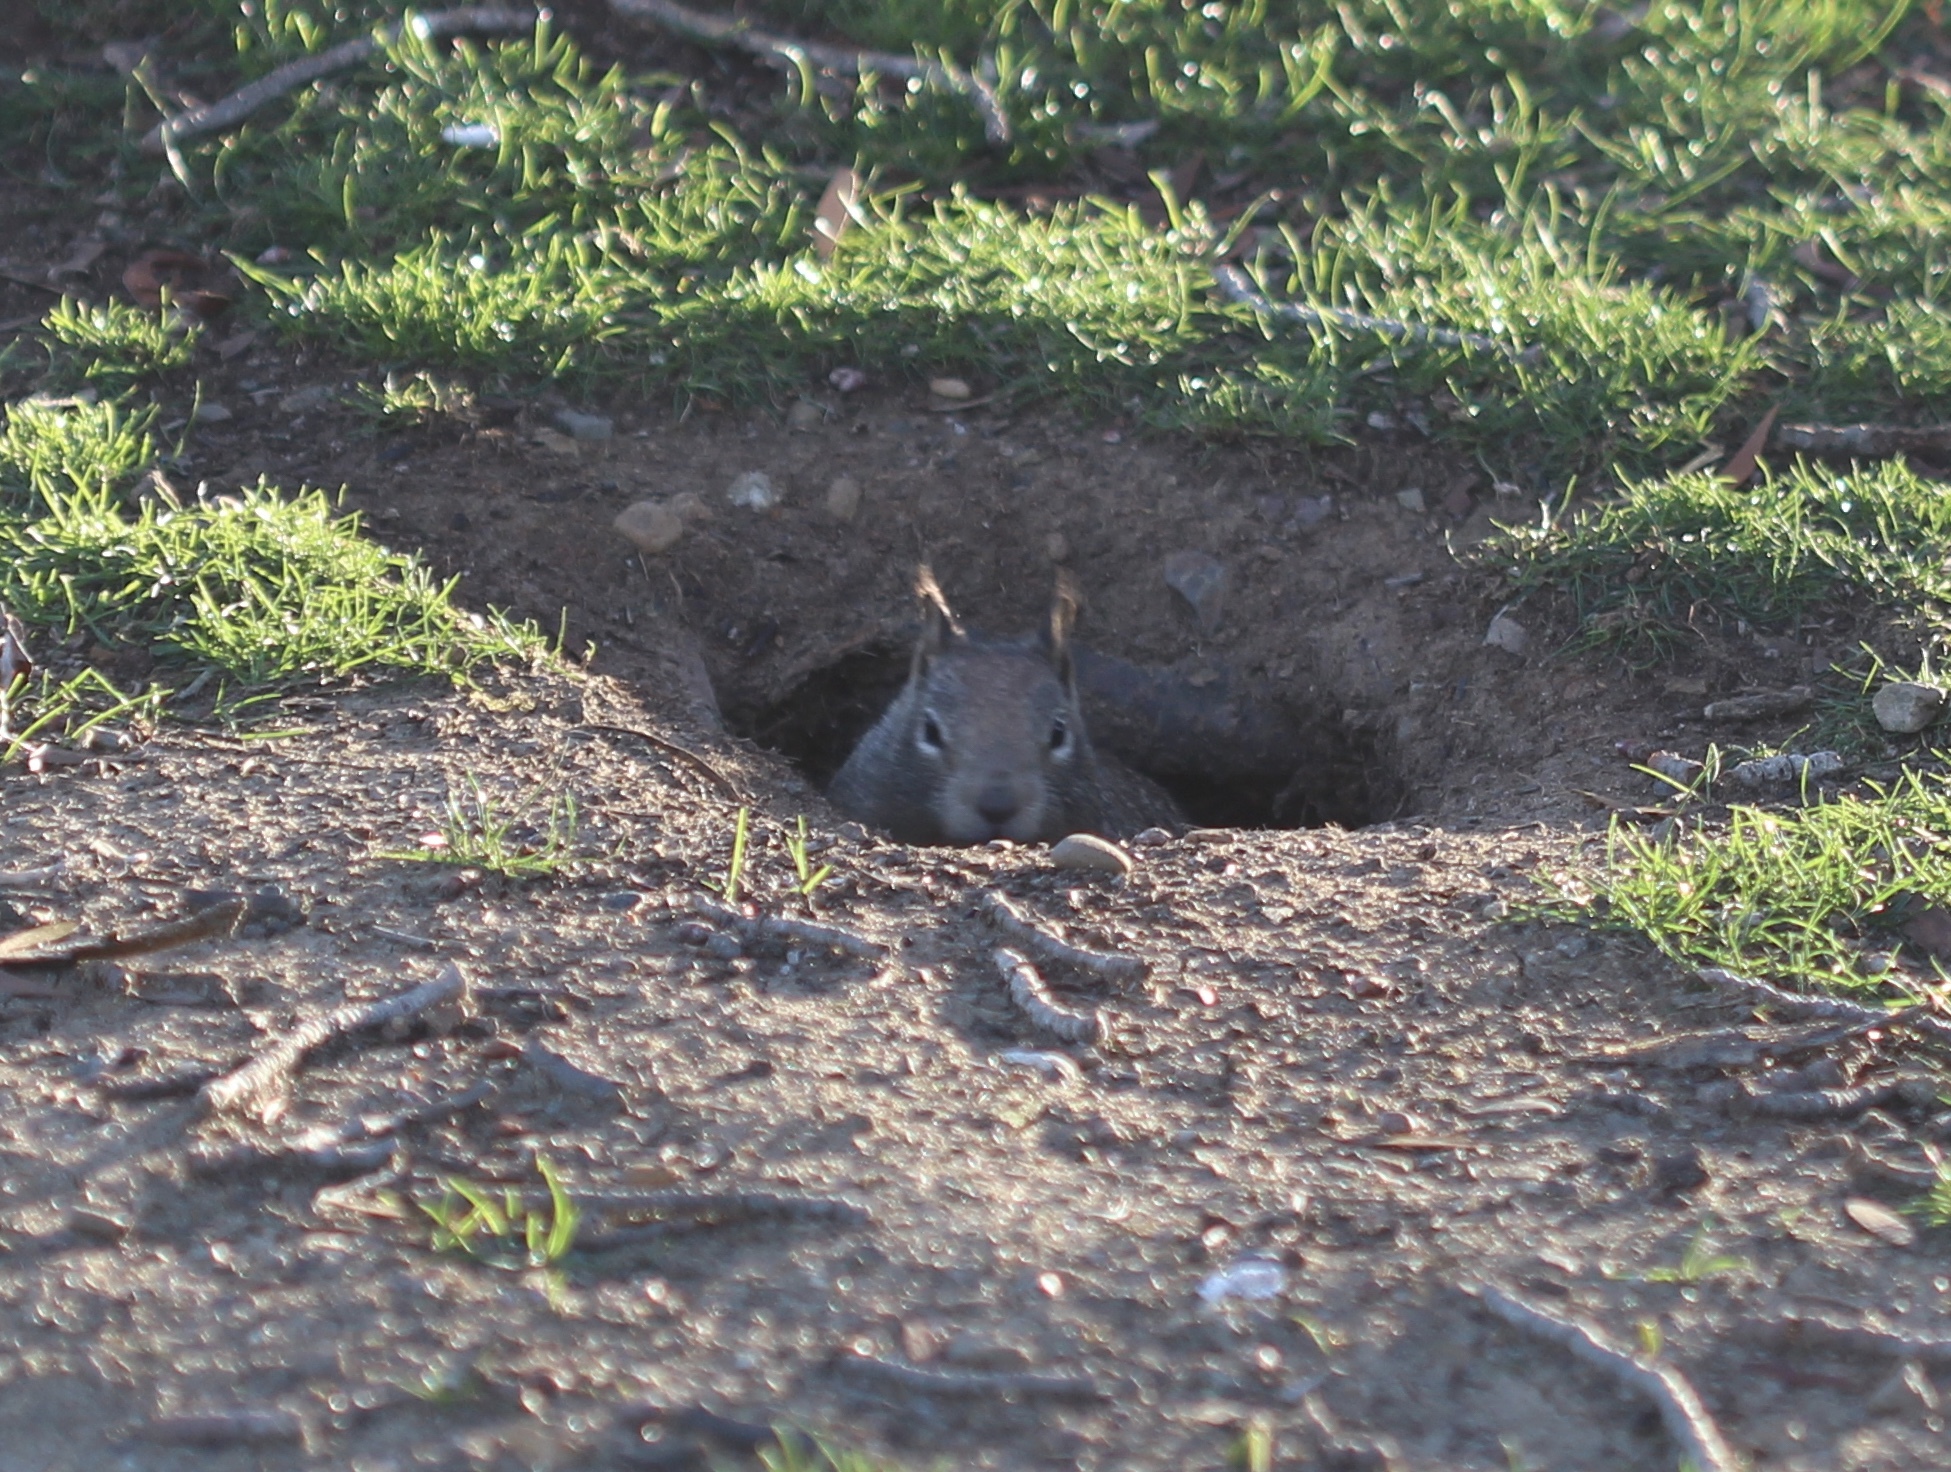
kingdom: Animalia
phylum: Chordata
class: Mammalia
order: Rodentia
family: Sciuridae
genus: Otospermophilus
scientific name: Otospermophilus beecheyi
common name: California ground squirrel
